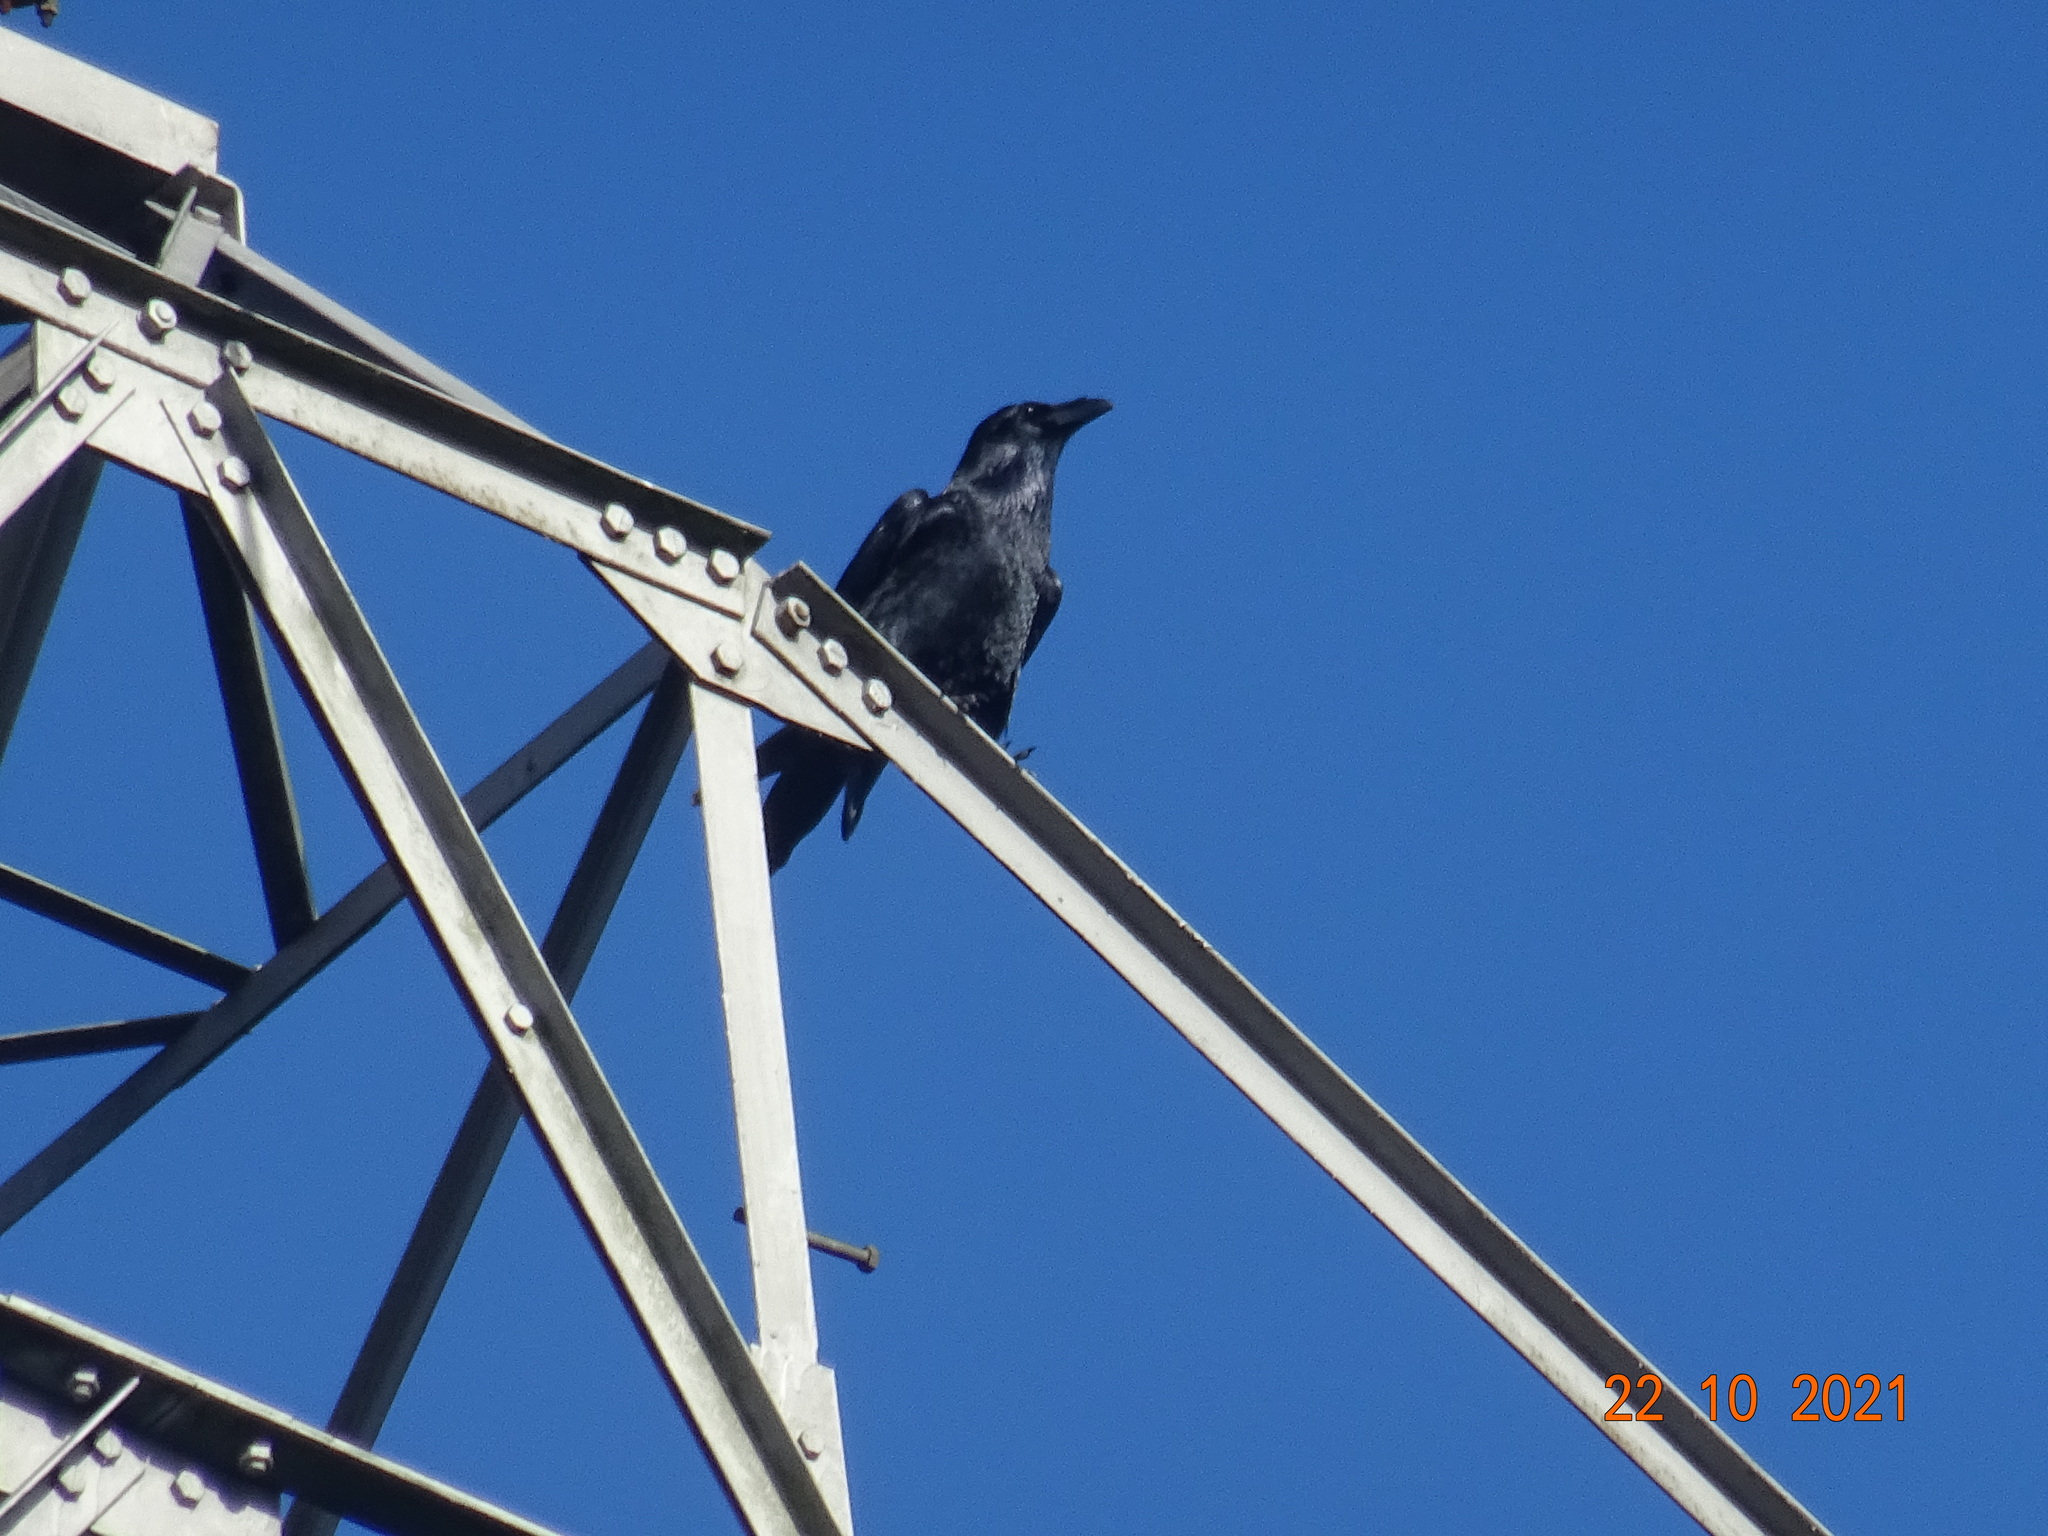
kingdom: Animalia
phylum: Chordata
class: Aves
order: Passeriformes
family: Corvidae
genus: Corvus
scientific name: Corvus corax
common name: Common raven
